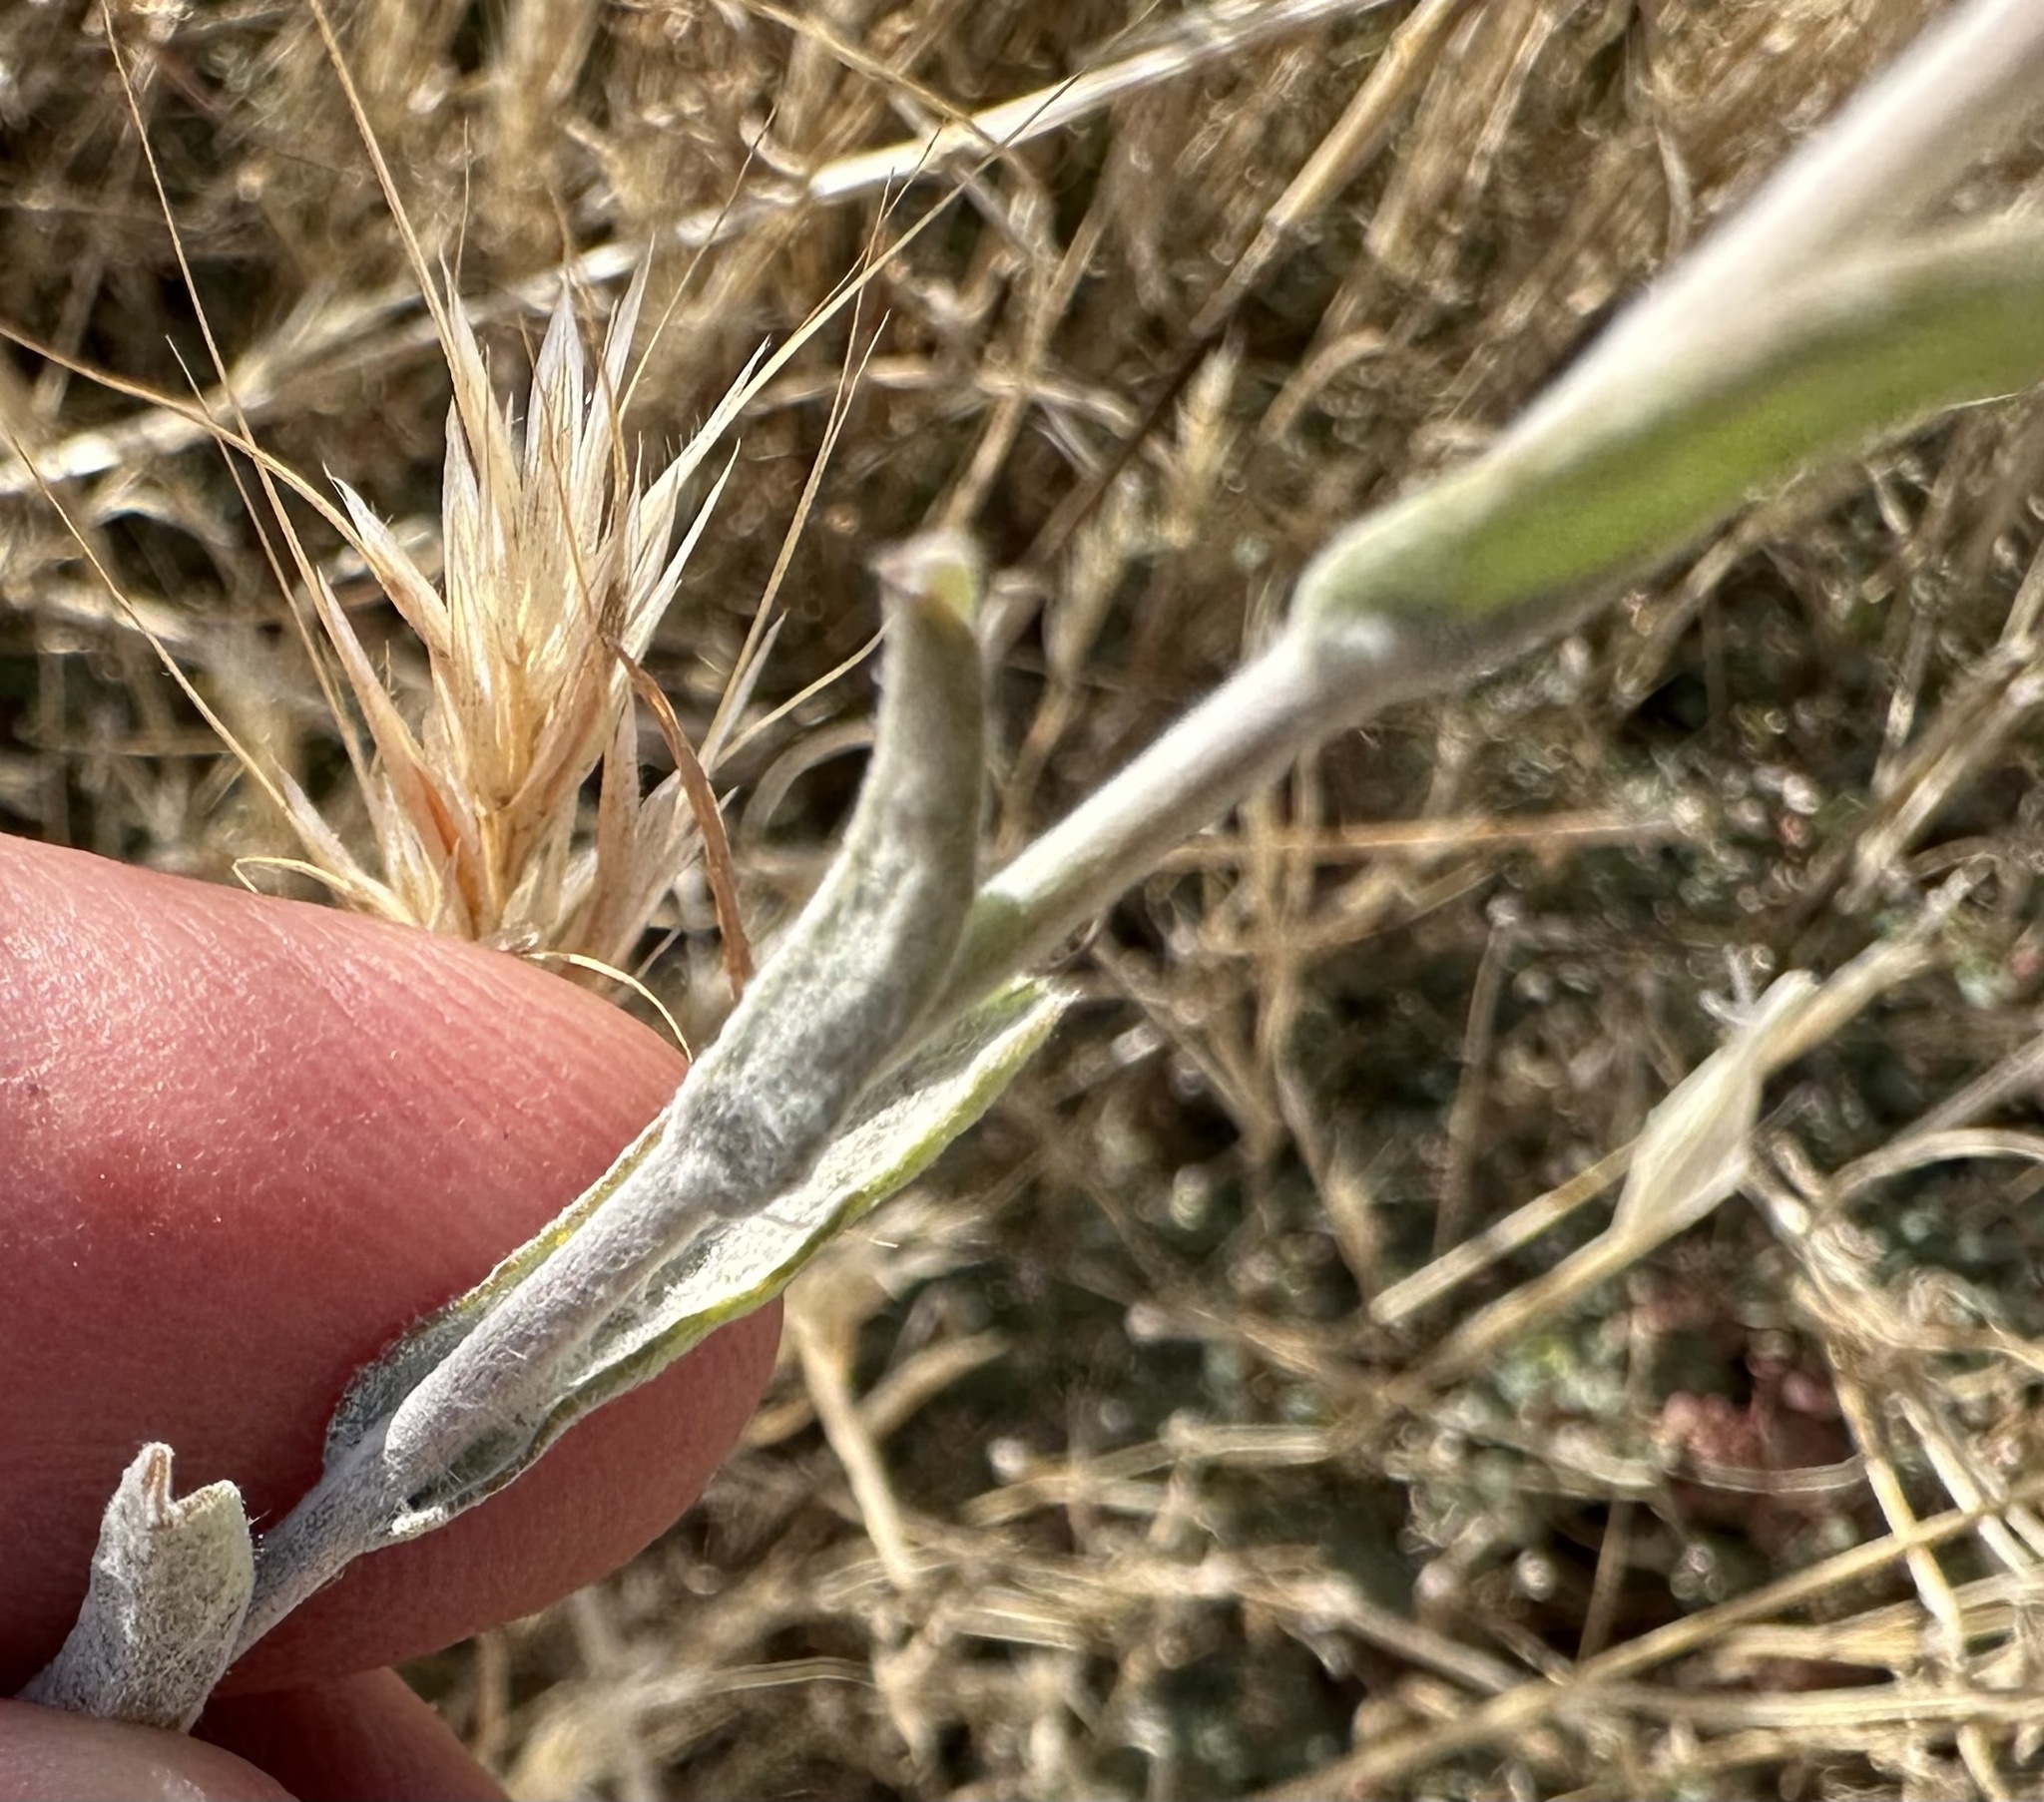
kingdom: Plantae
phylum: Tracheophyta
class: Magnoliopsida
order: Asterales
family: Asteraceae
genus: Corethrogyne
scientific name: Corethrogyne filaginifolia
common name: Sand-aster
